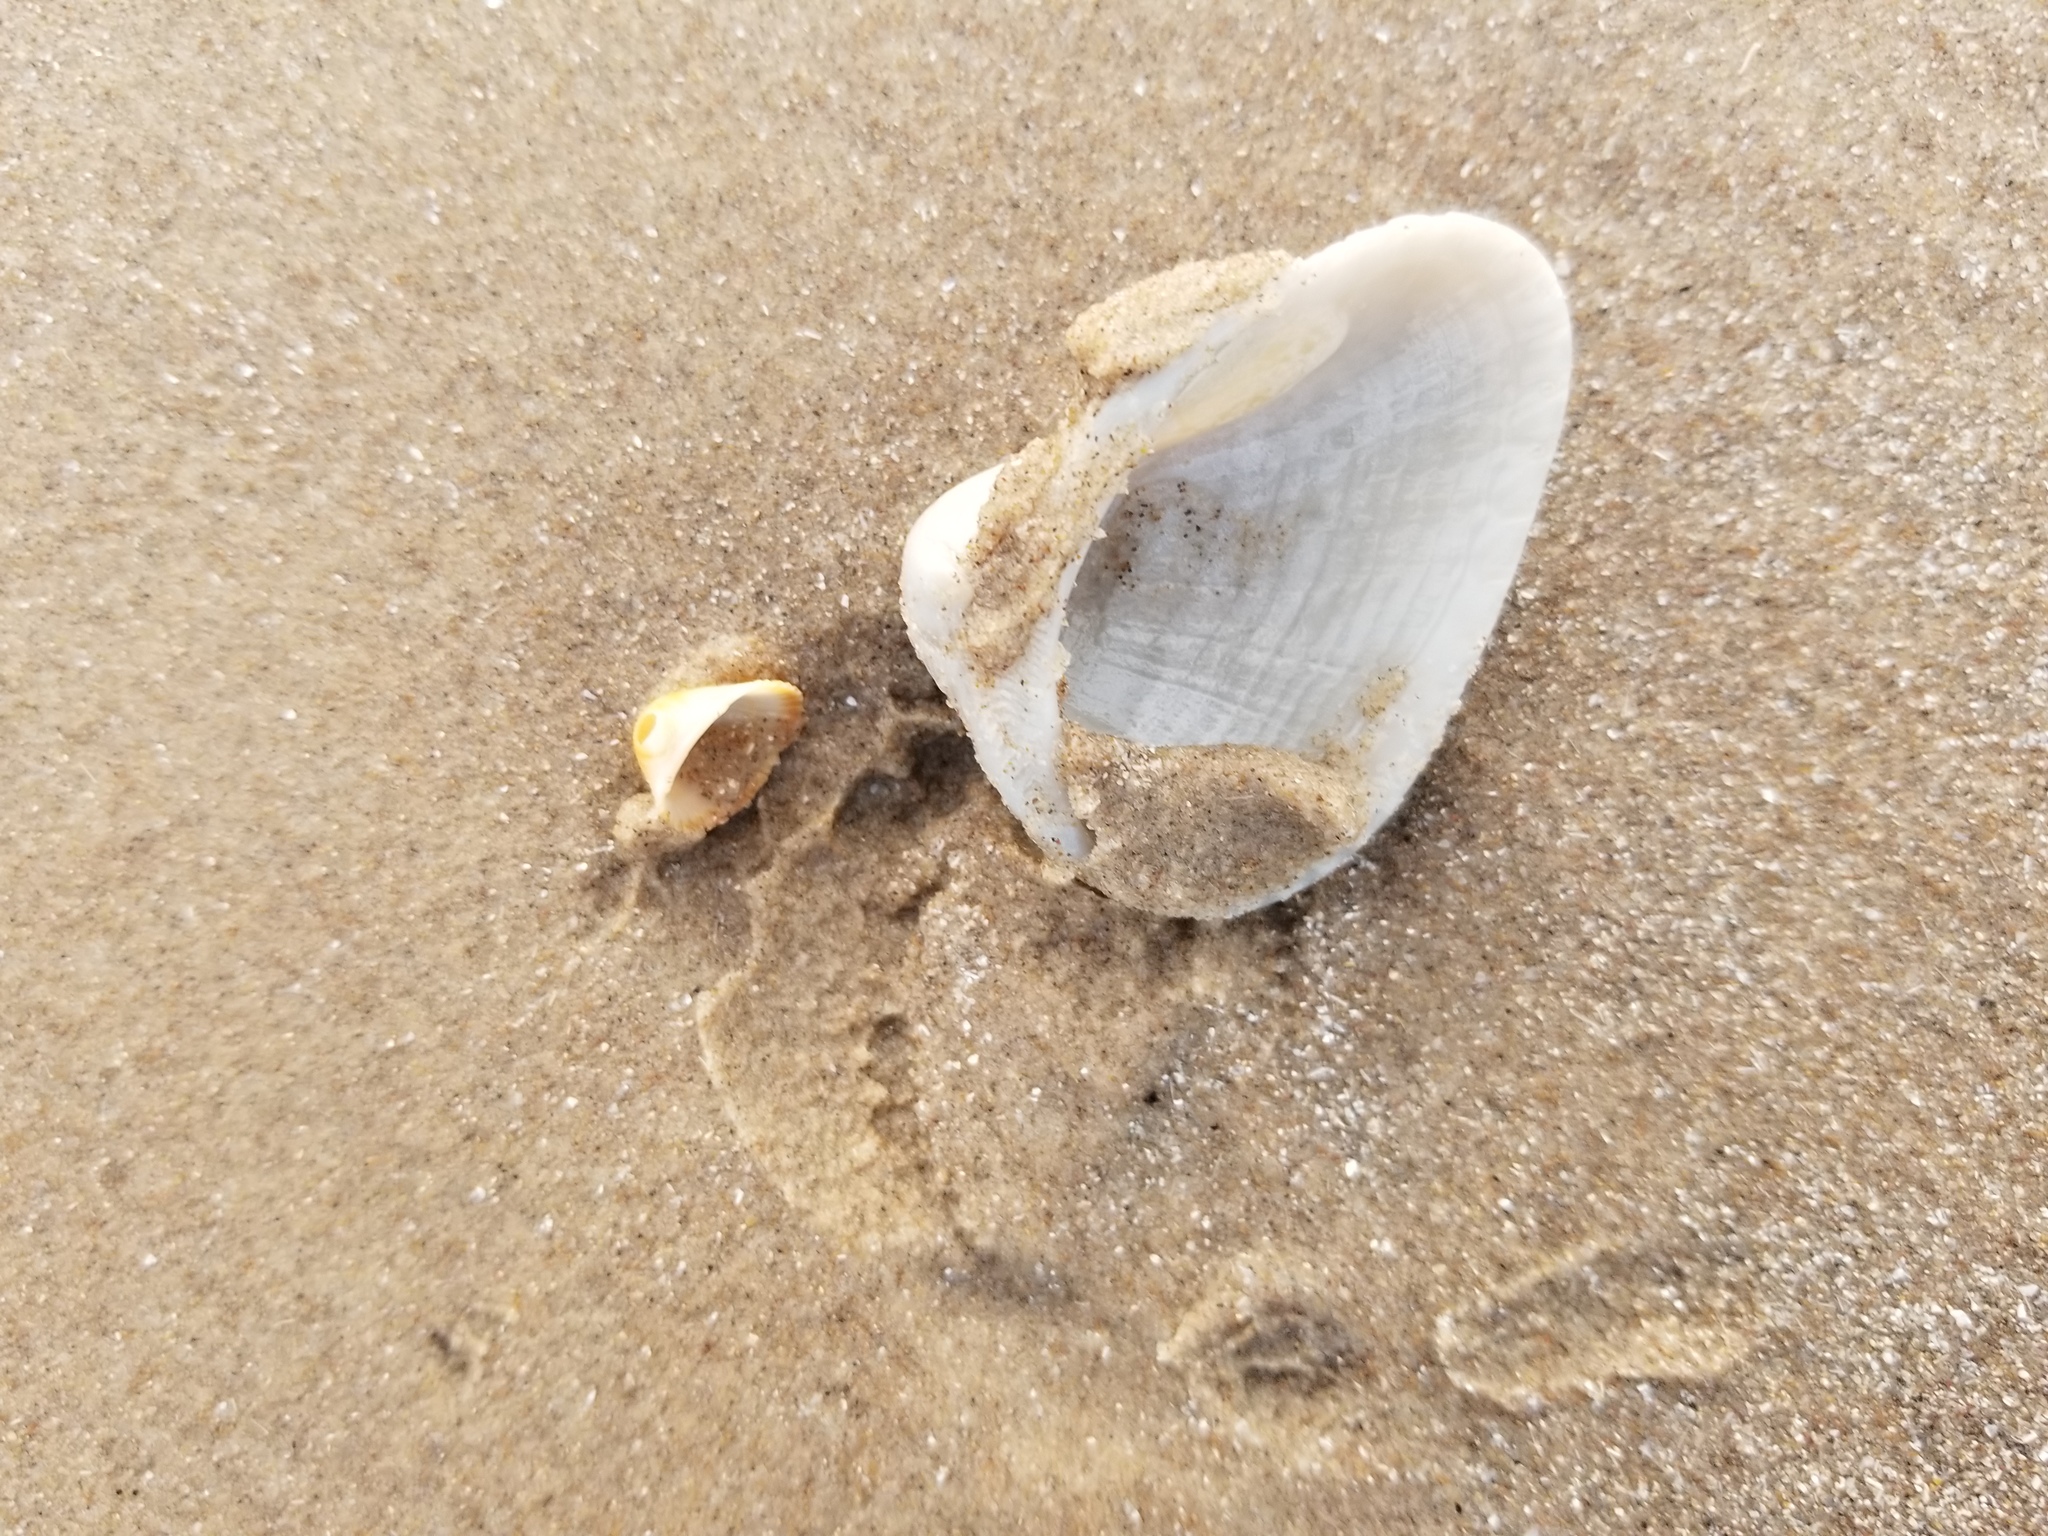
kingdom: Animalia
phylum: Mollusca
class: Bivalvia
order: Arcida
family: Noetiidae
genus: Noetia
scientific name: Noetia ponderosa
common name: Ponderous ark
